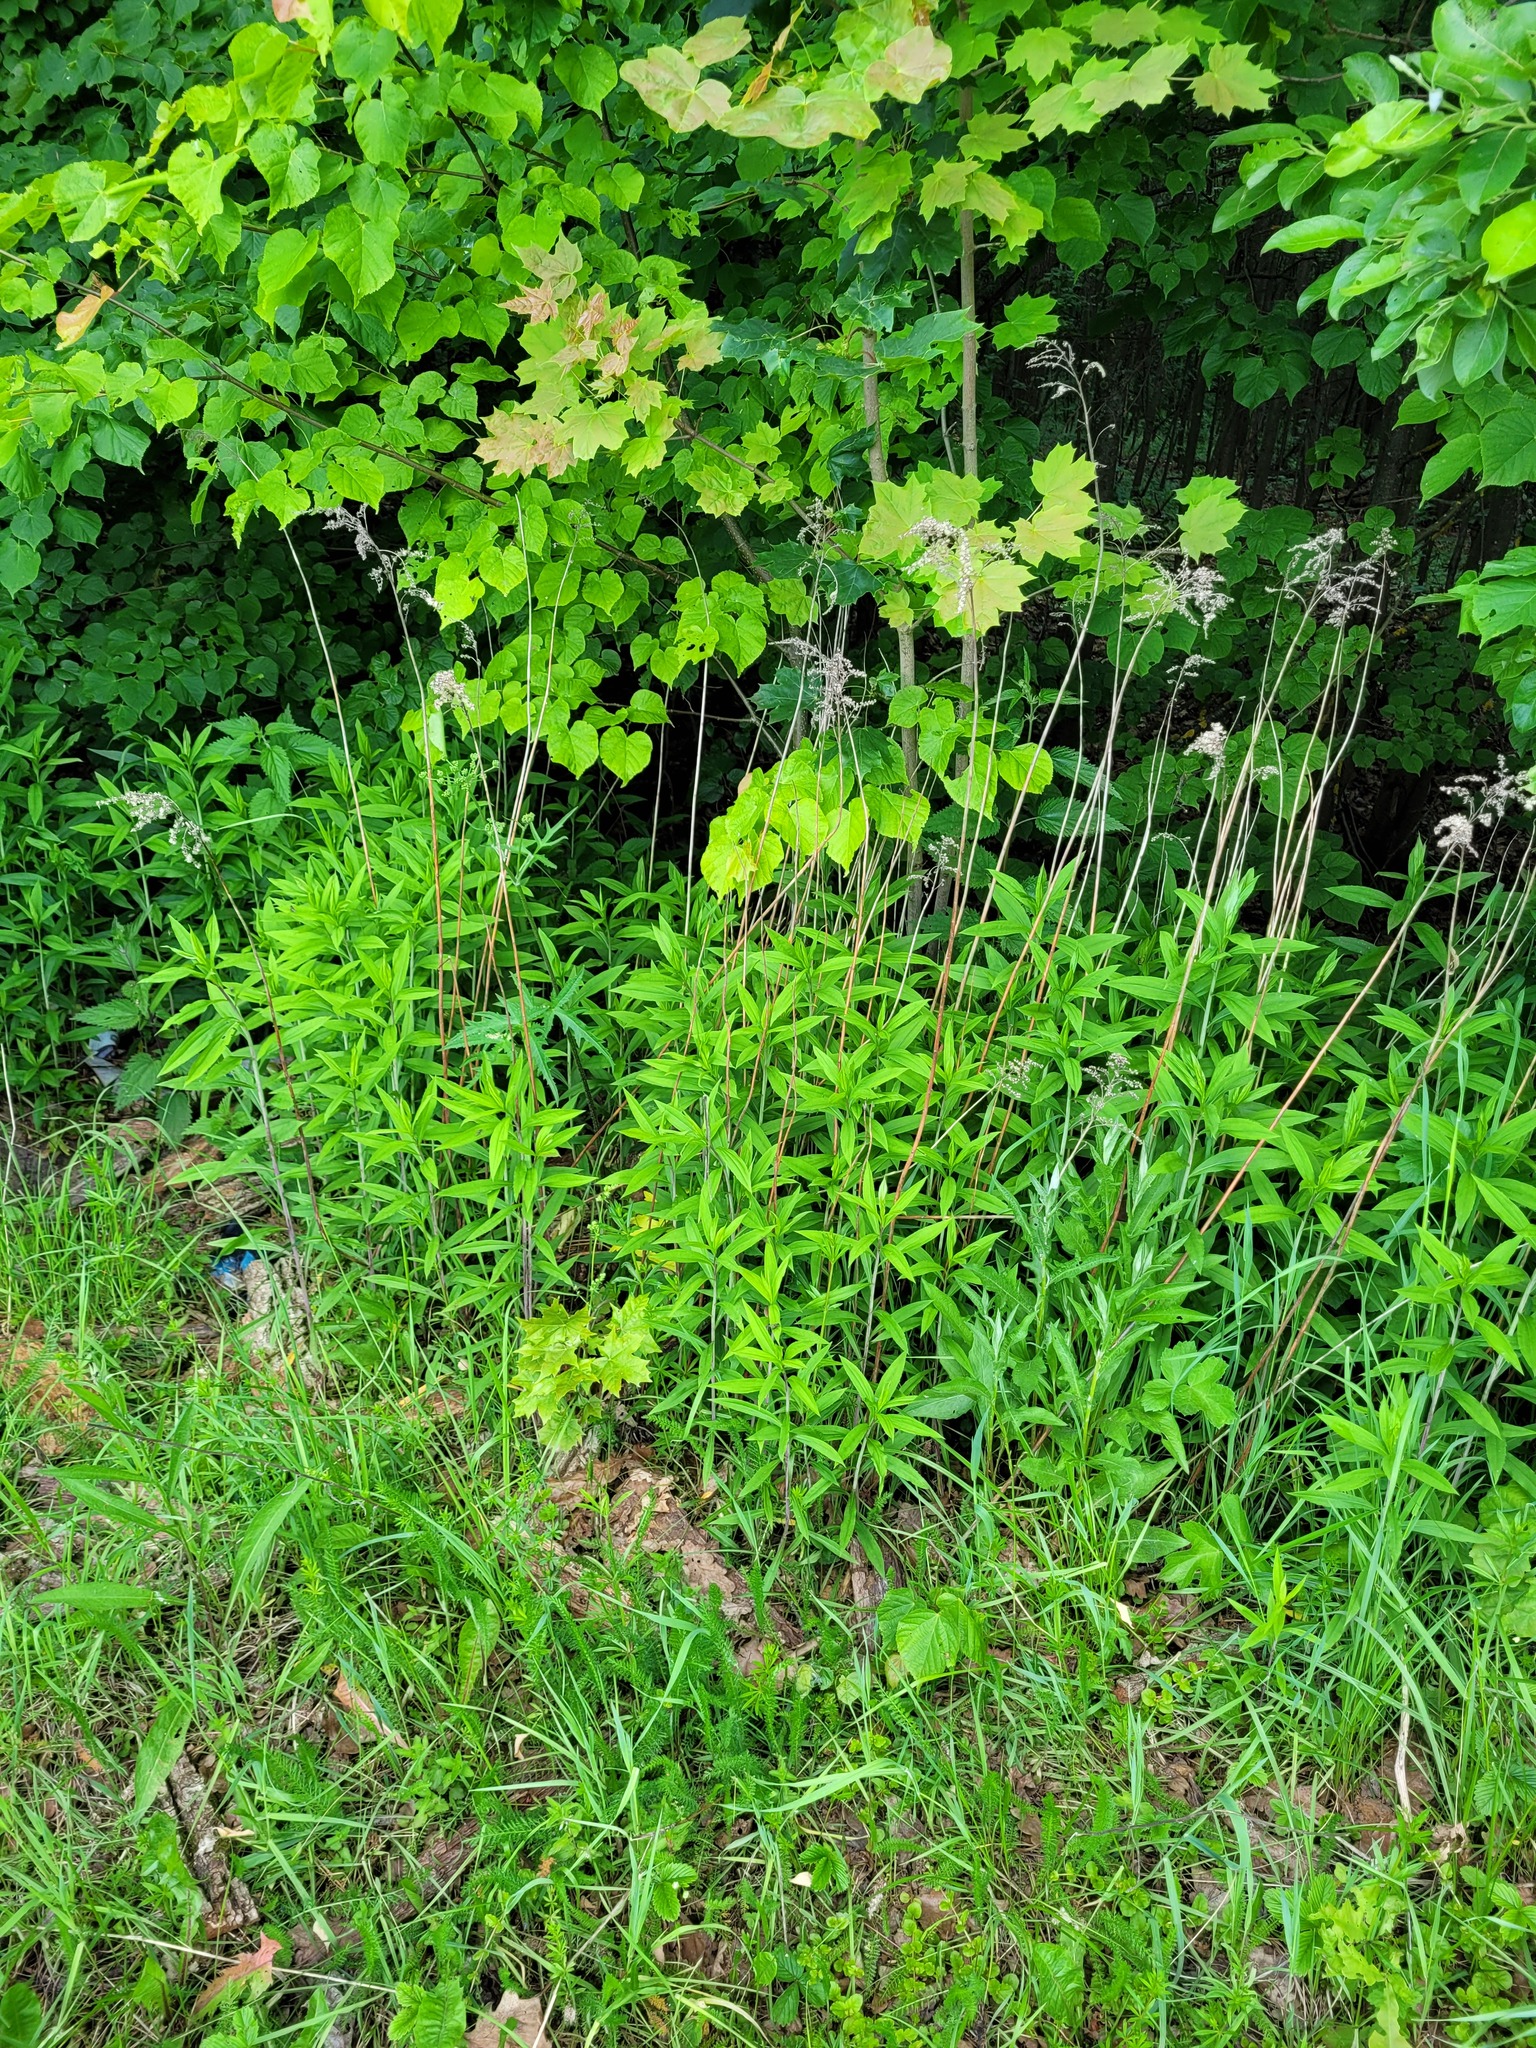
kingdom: Plantae
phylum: Tracheophyta
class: Magnoliopsida
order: Asterales
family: Asteraceae
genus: Solidago
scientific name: Solidago gigantea
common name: Giant goldenrod
